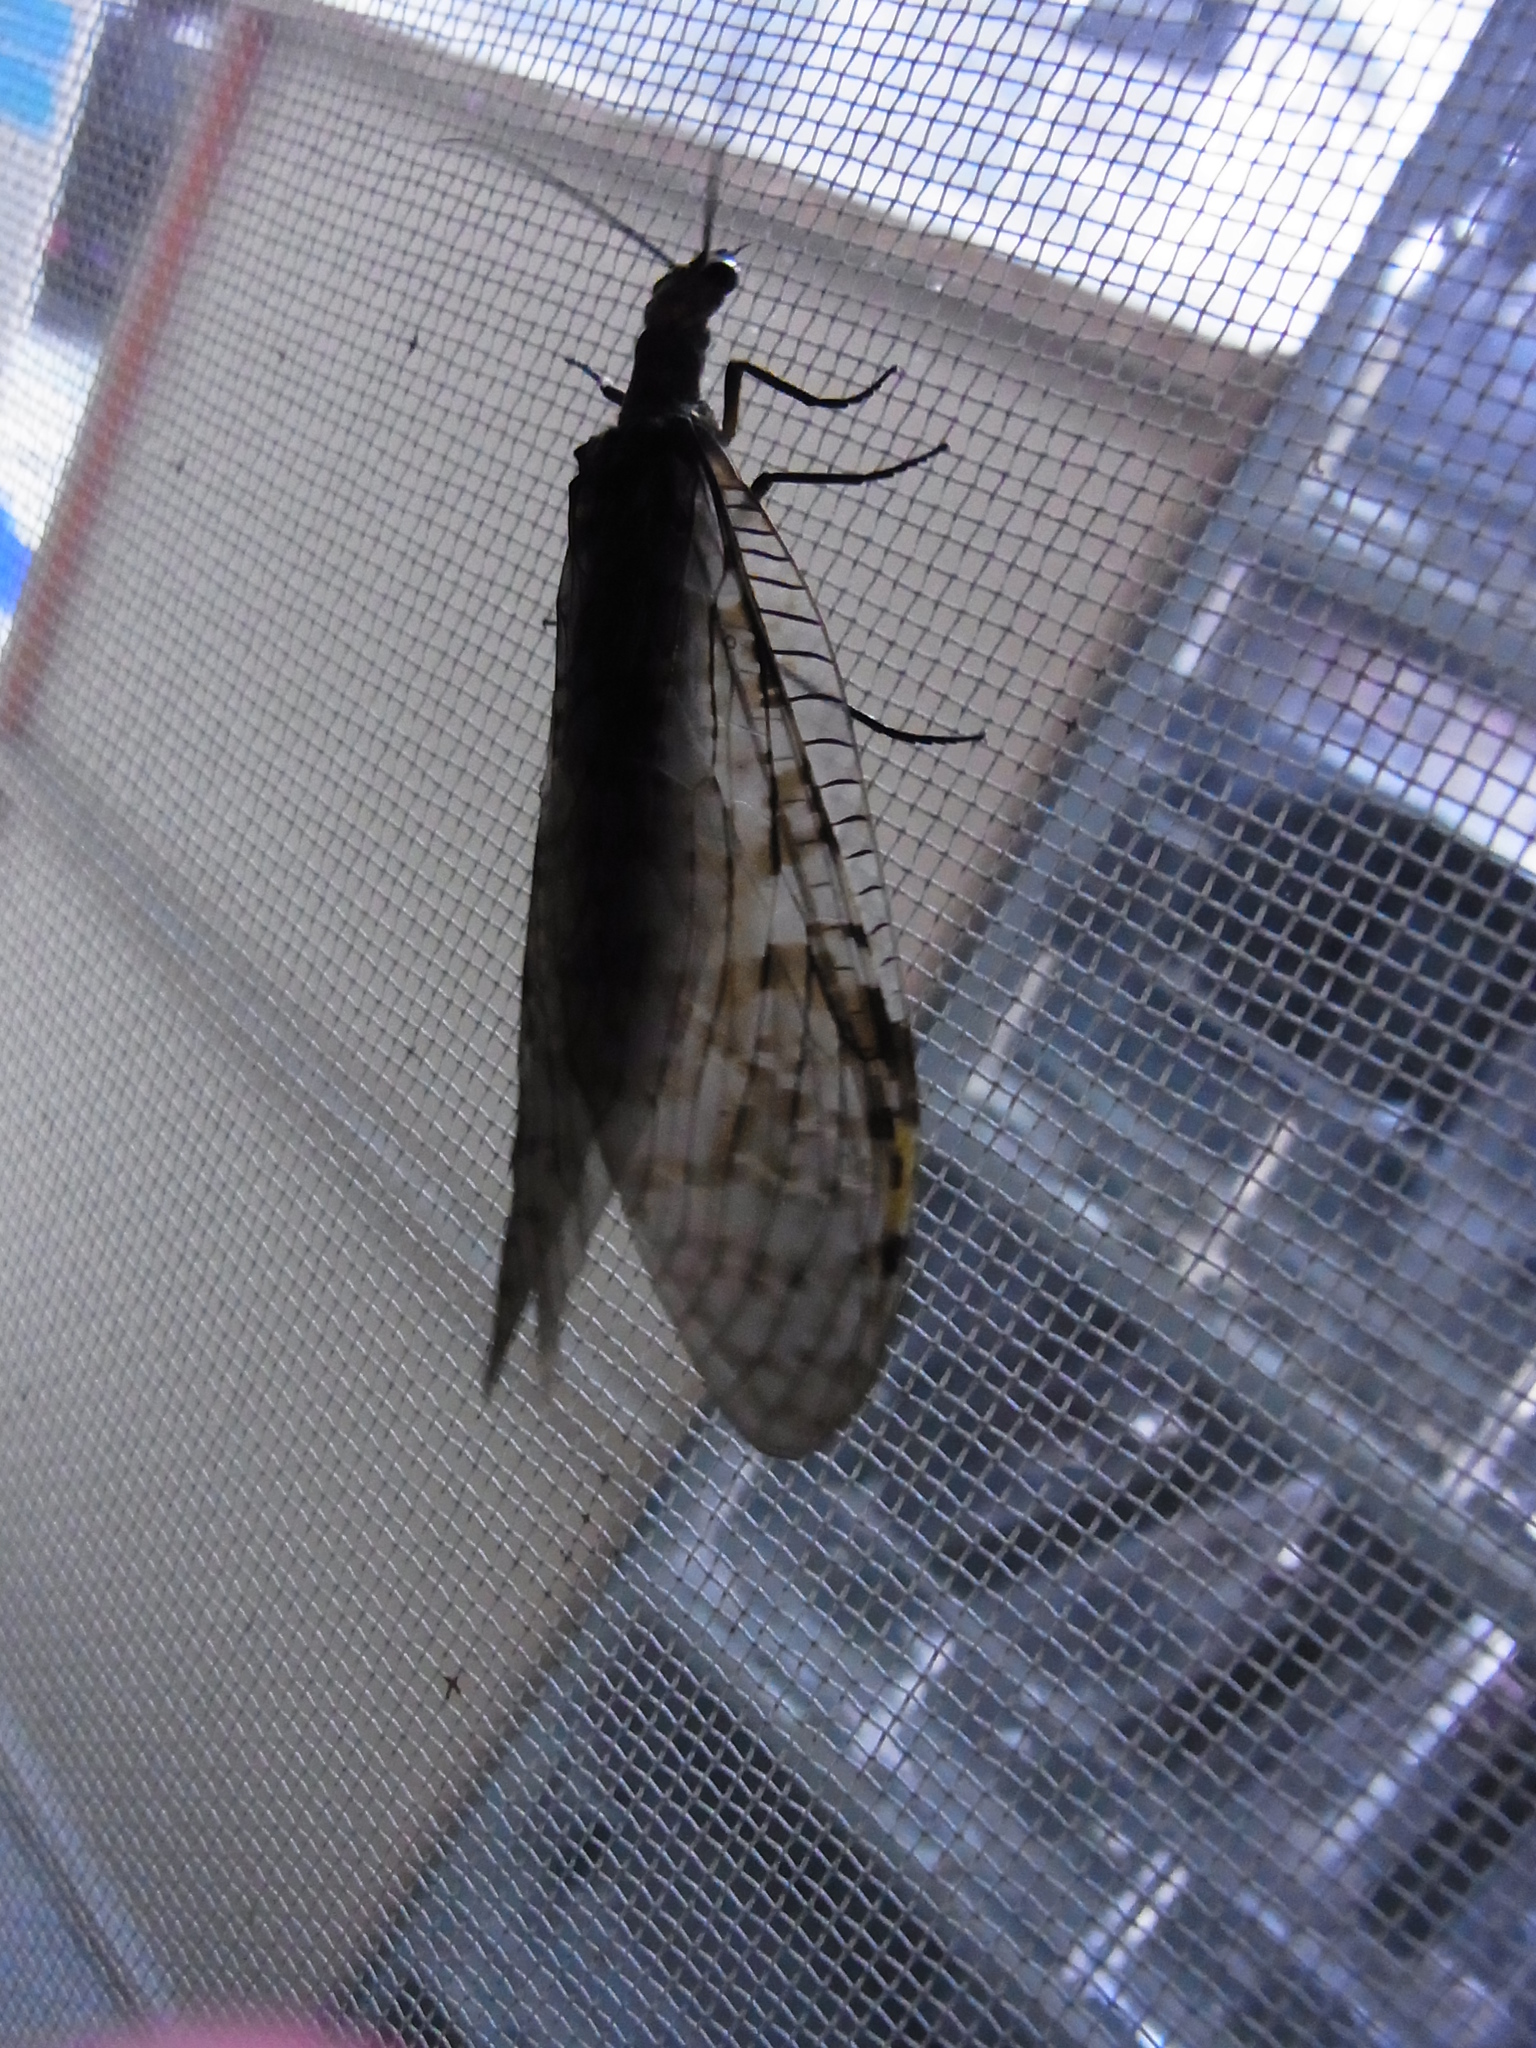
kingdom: Animalia
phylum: Arthropoda
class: Insecta
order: Megaloptera
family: Corydalidae
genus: Parachauliodes
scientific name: Parachauliodes continentalis
